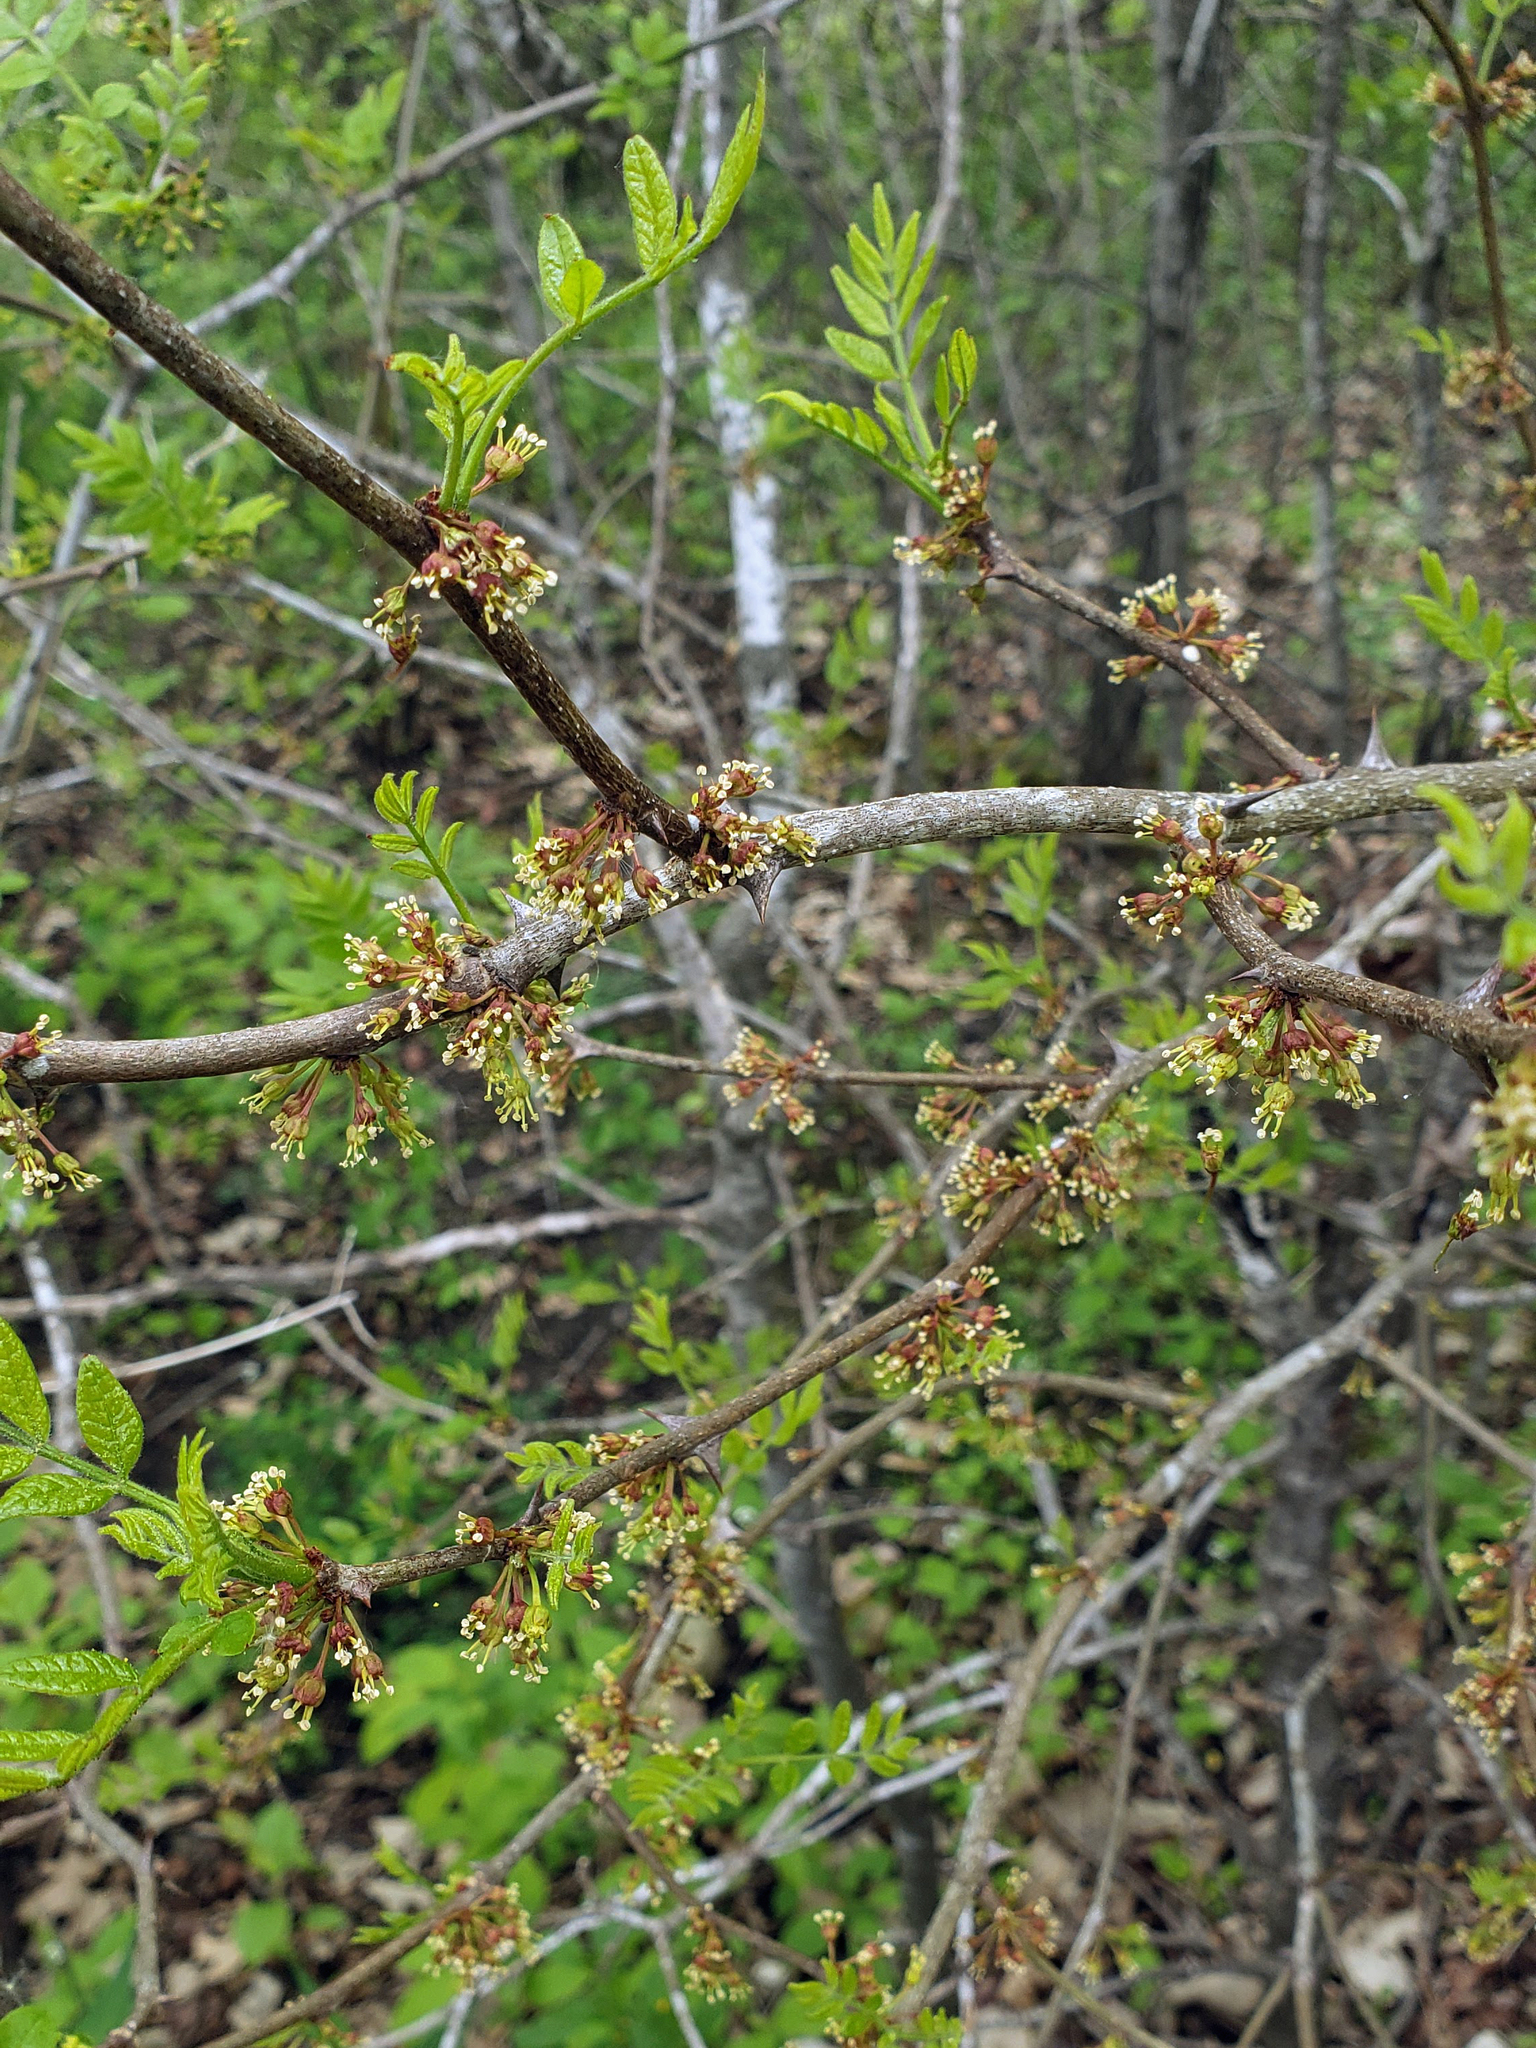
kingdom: Plantae
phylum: Tracheophyta
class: Magnoliopsida
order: Sapindales
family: Rutaceae
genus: Zanthoxylum
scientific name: Zanthoxylum americanum
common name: Northern prickly-ash
